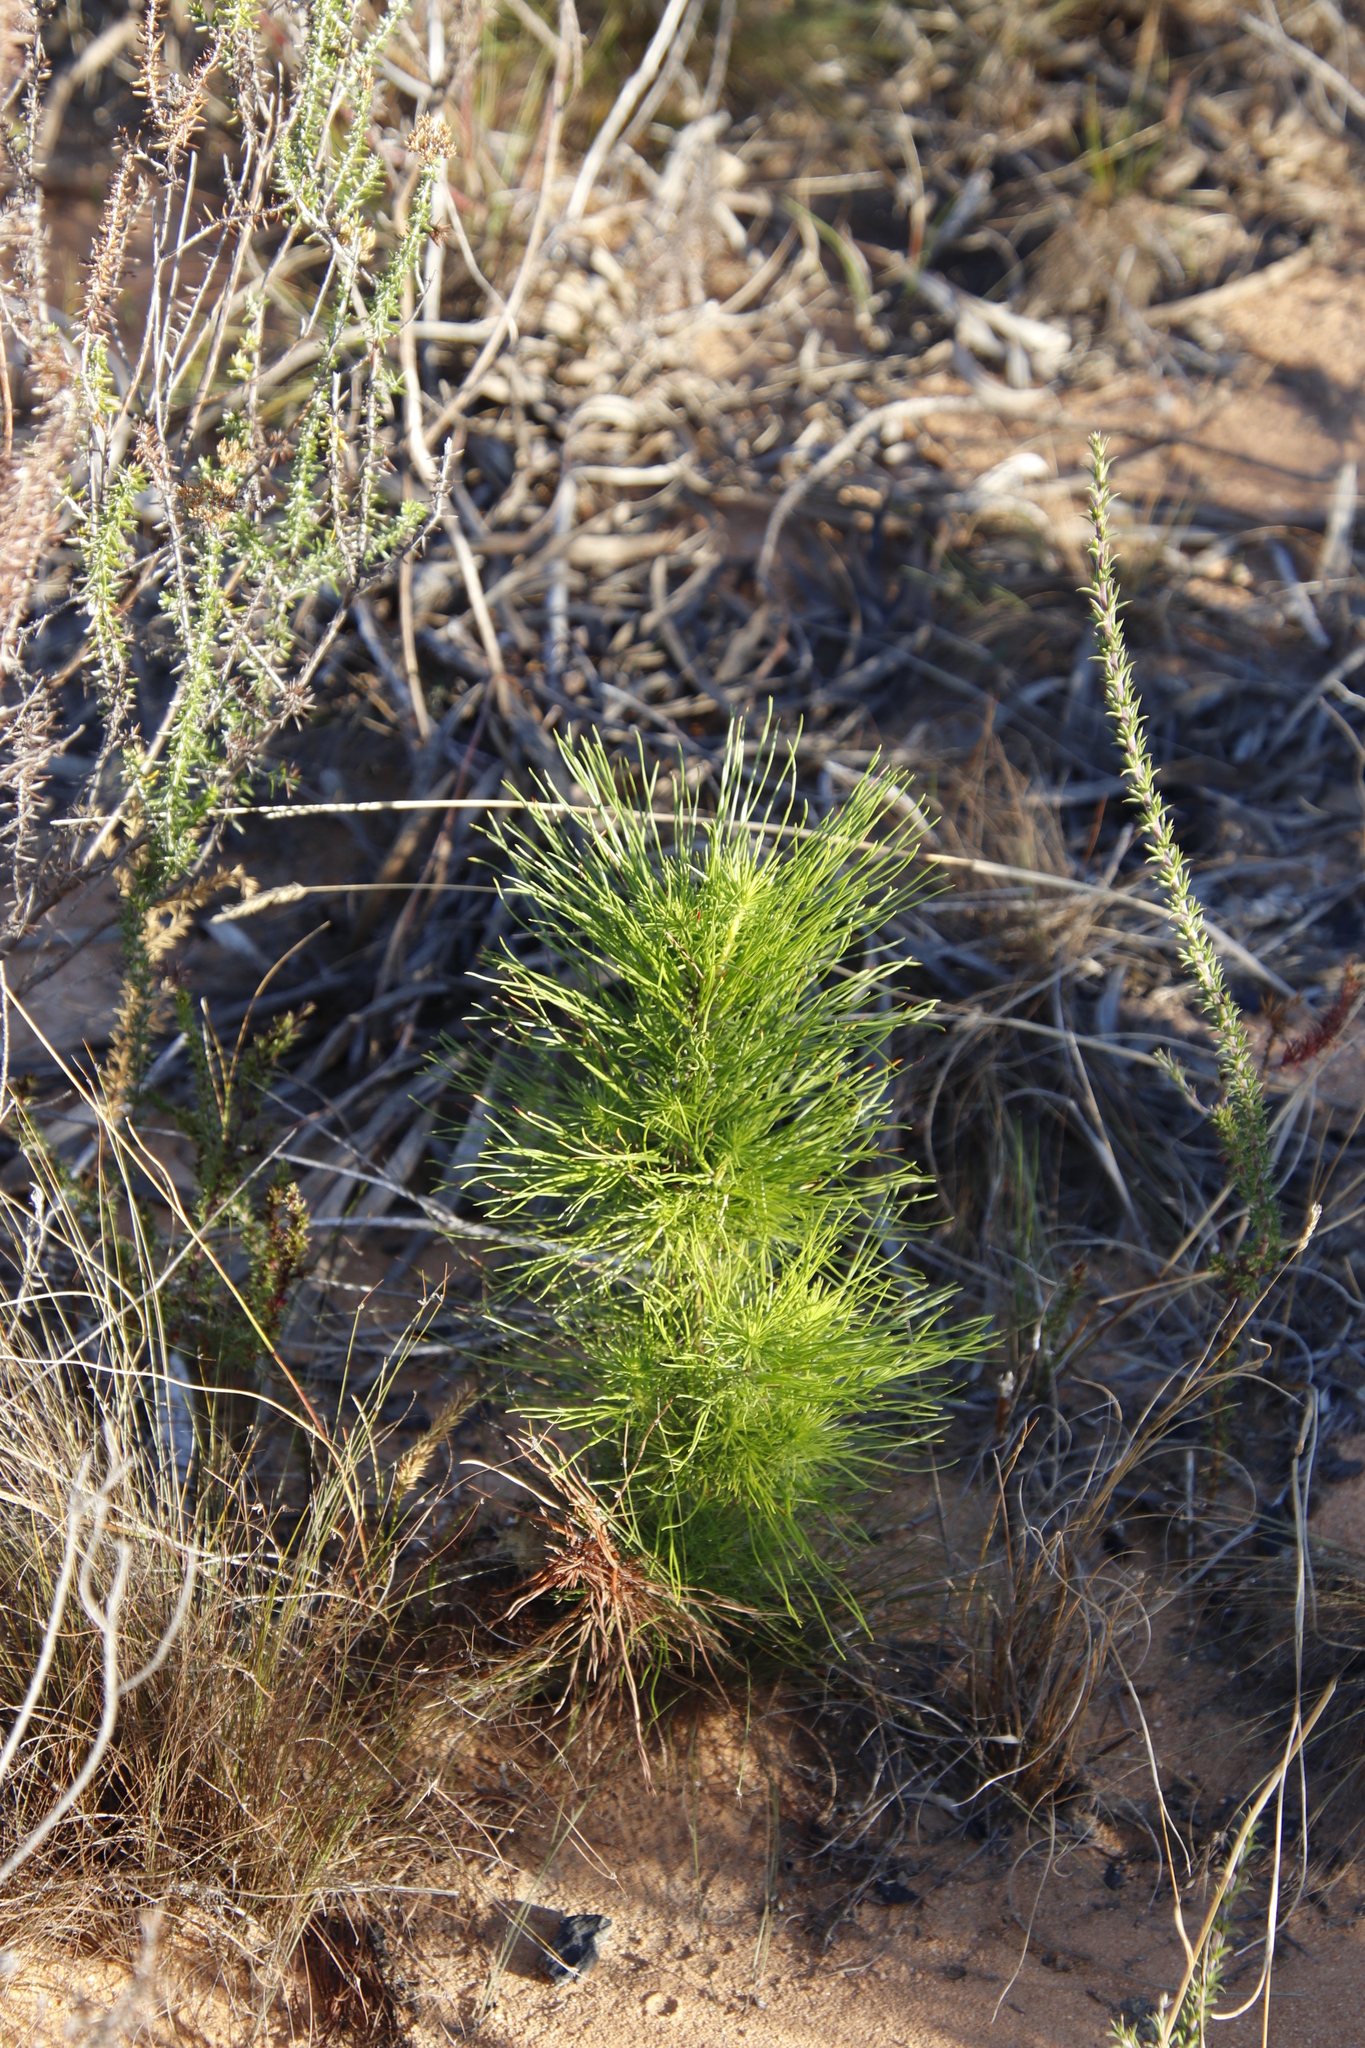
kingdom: Plantae
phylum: Tracheophyta
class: Pinopsida
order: Pinales
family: Pinaceae
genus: Pinus
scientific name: Pinus radiata
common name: Monterey pine
